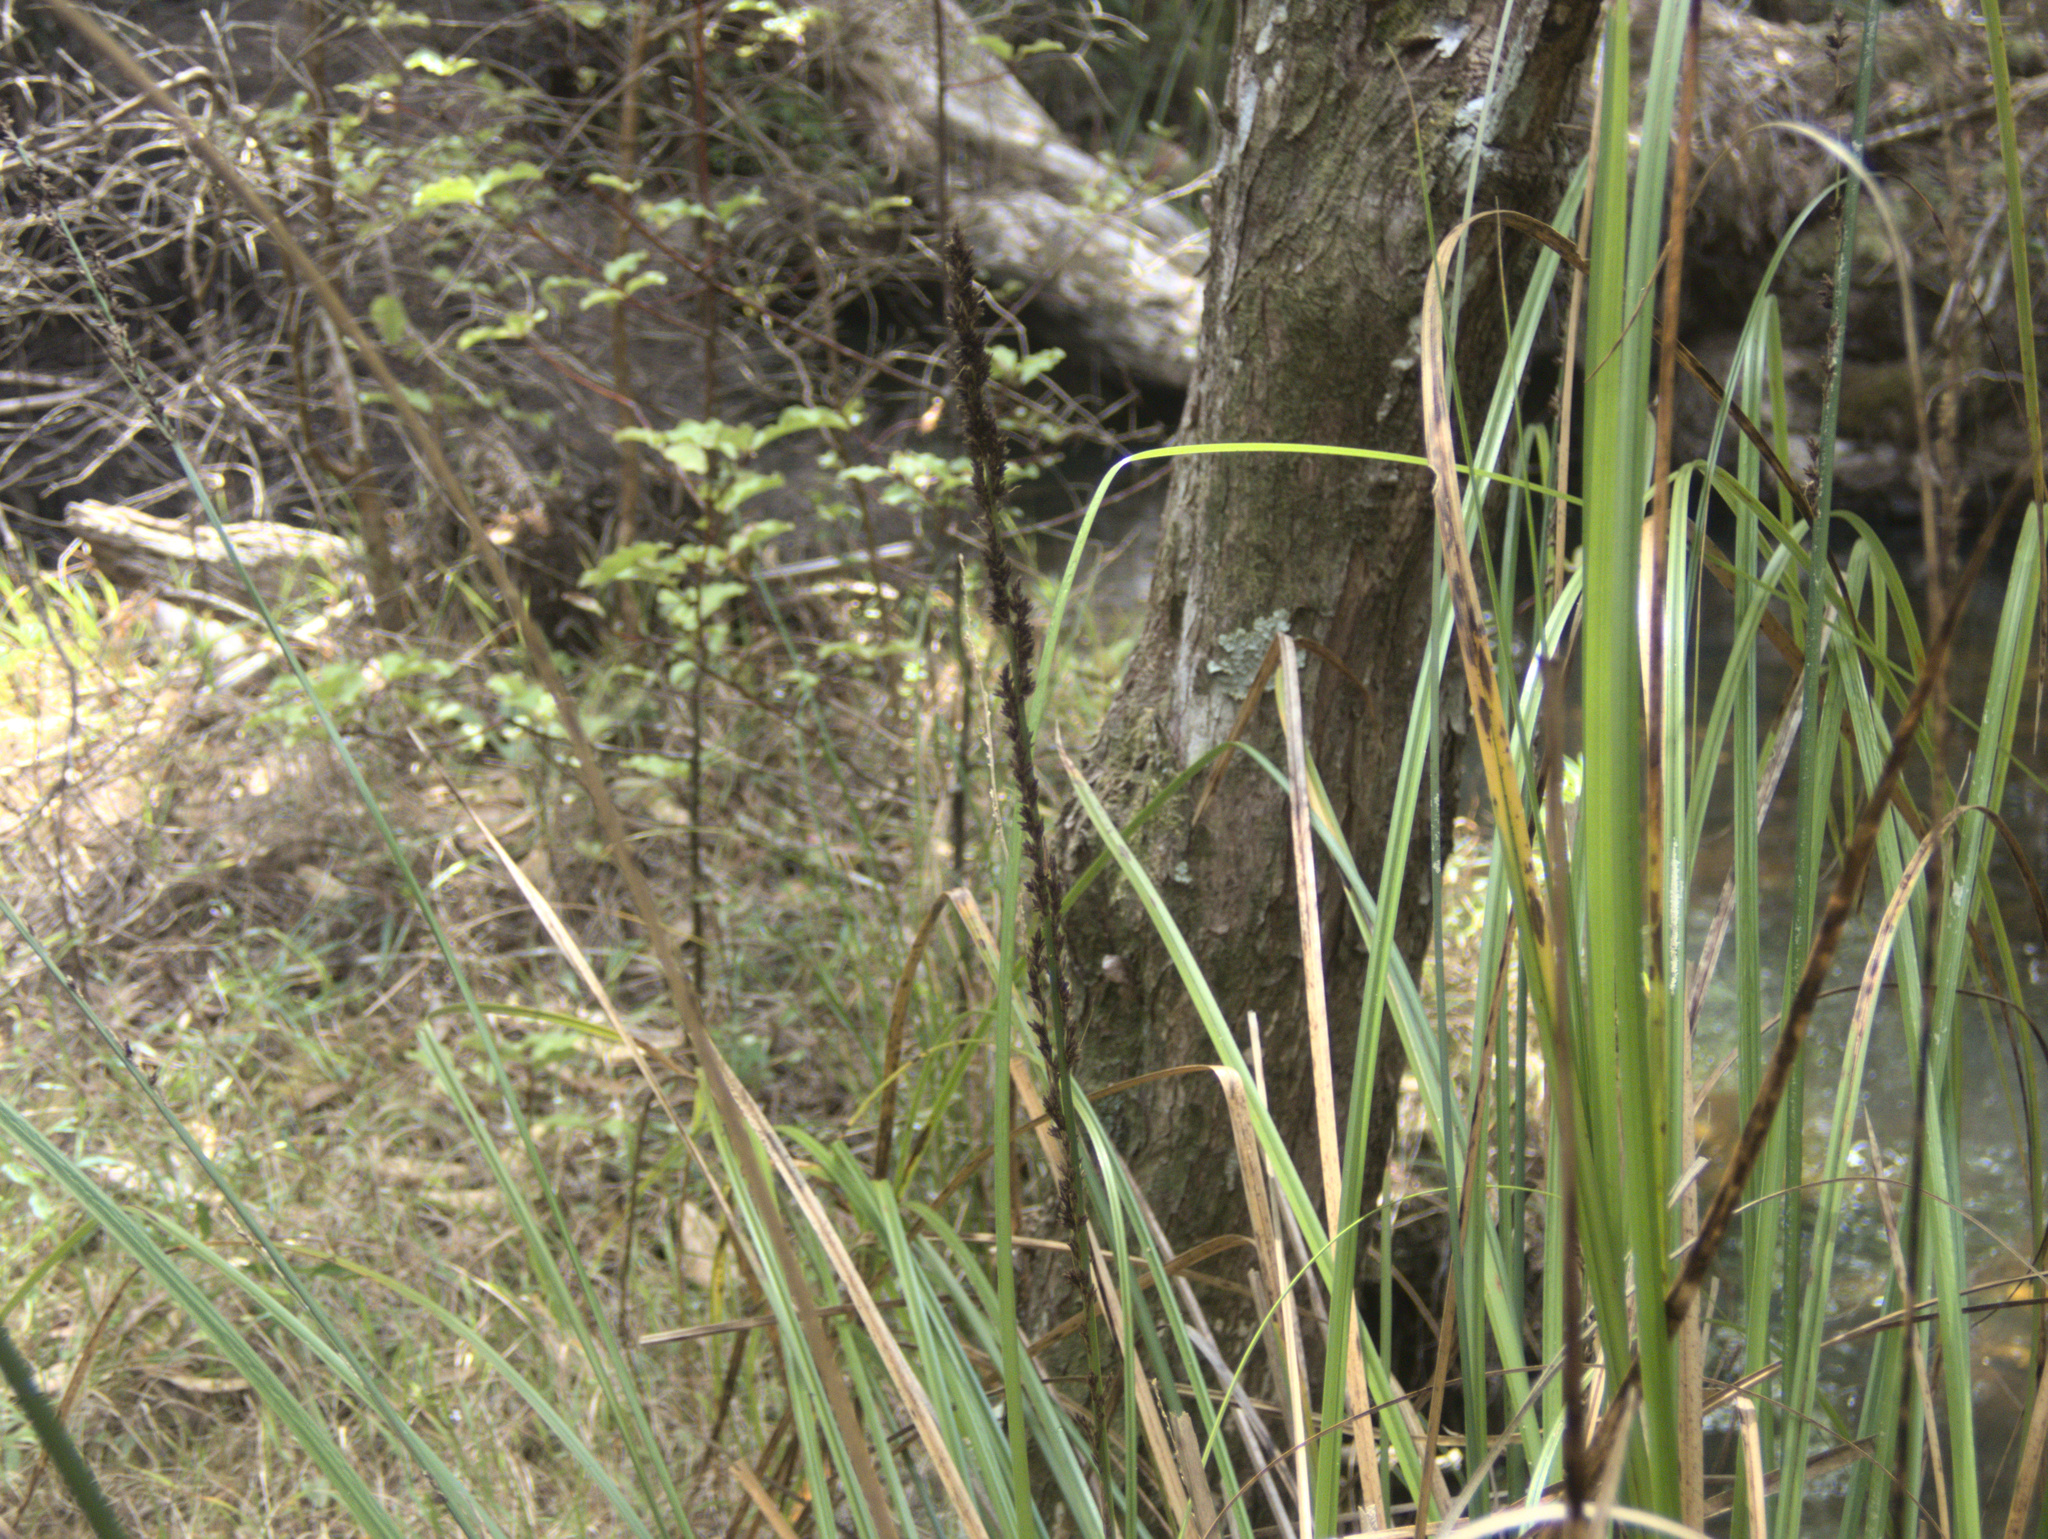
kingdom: Plantae
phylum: Tracheophyta
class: Liliopsida
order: Poales
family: Cyperaceae
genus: Carex
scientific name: Carex virgata
